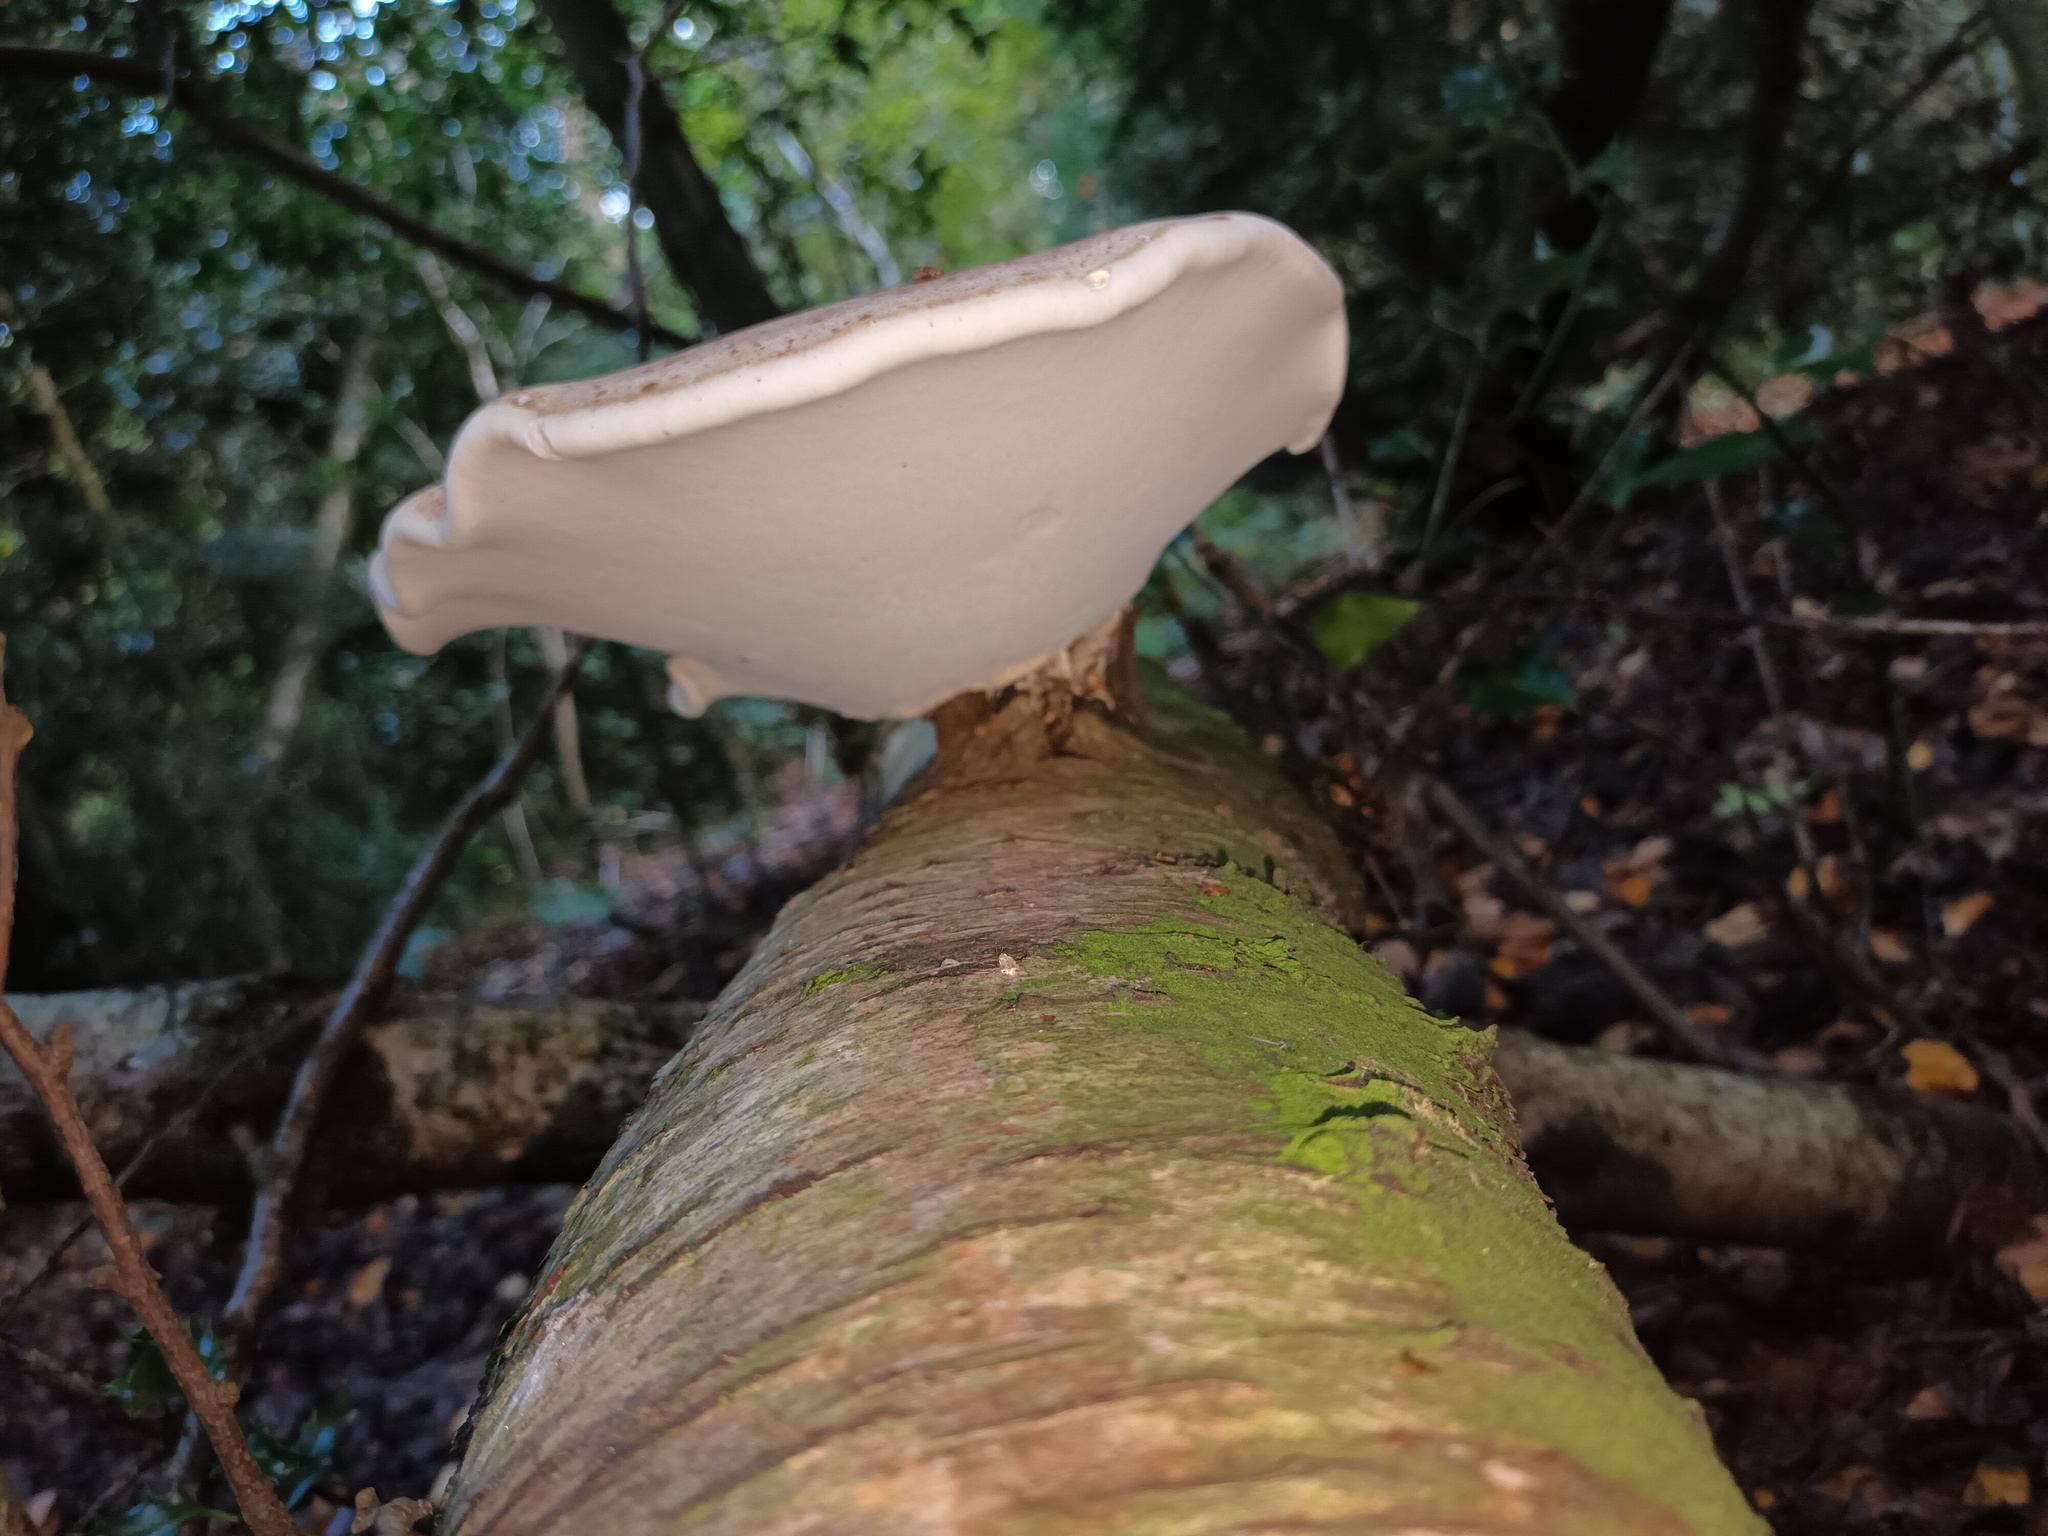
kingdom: Fungi
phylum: Basidiomycota
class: Agaricomycetes
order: Polyporales
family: Fomitopsidaceae
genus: Fomitopsis
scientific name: Fomitopsis betulina
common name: Birch polypore
